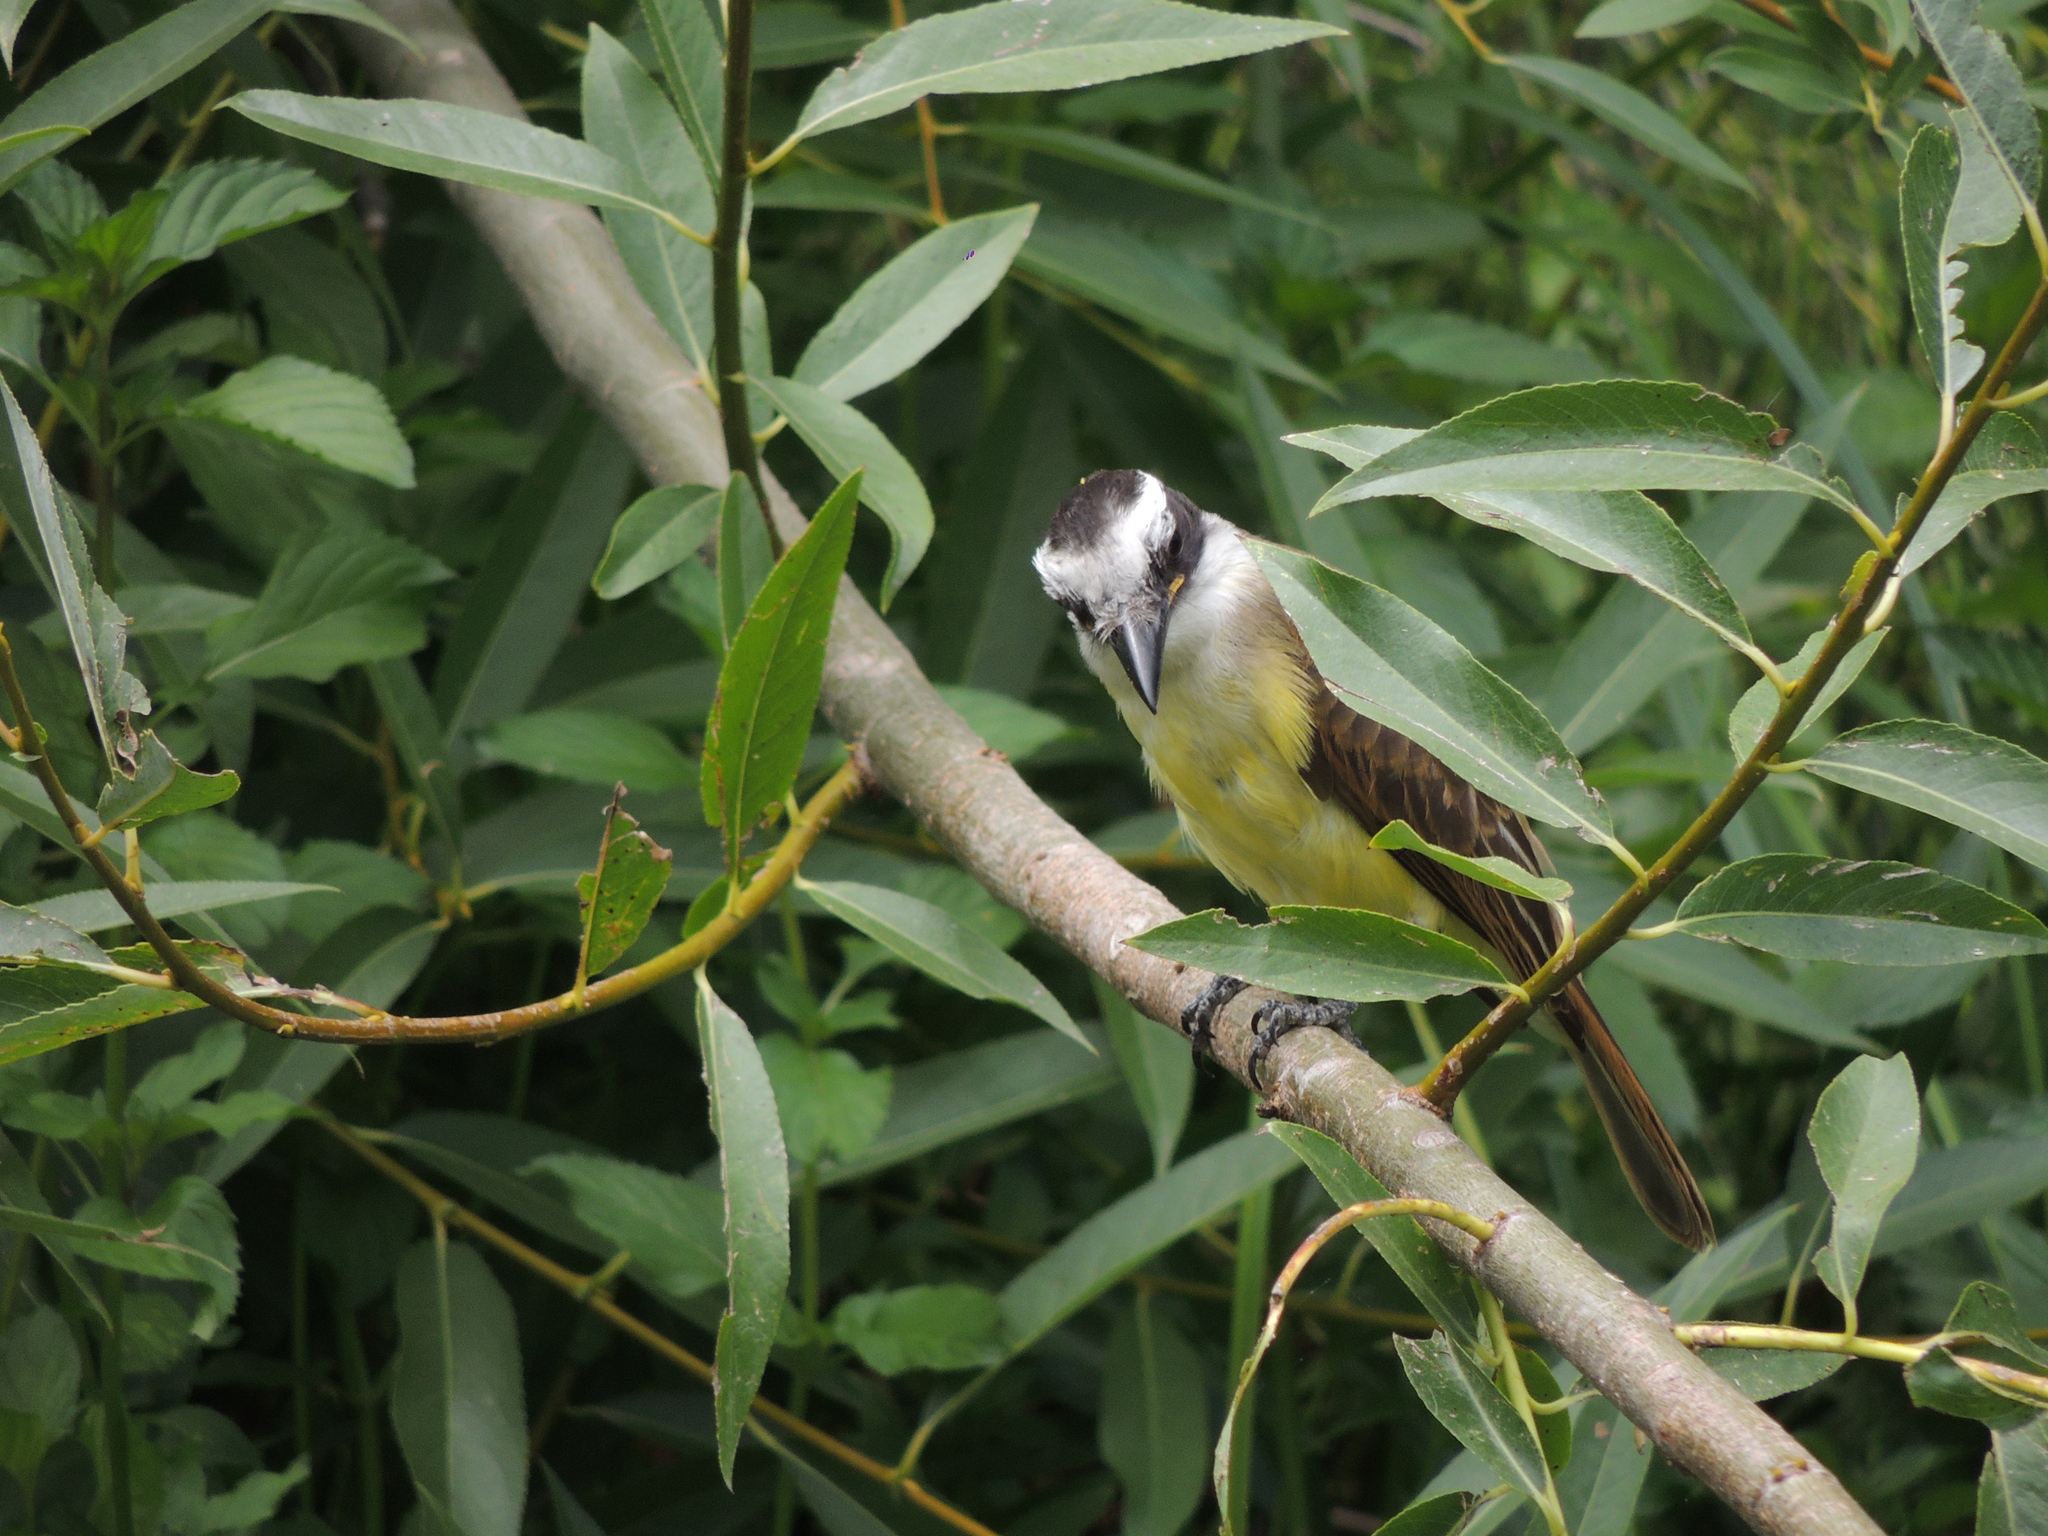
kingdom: Animalia
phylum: Chordata
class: Aves
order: Passeriformes
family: Tyrannidae
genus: Pitangus
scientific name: Pitangus sulphuratus
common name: Great kiskadee
